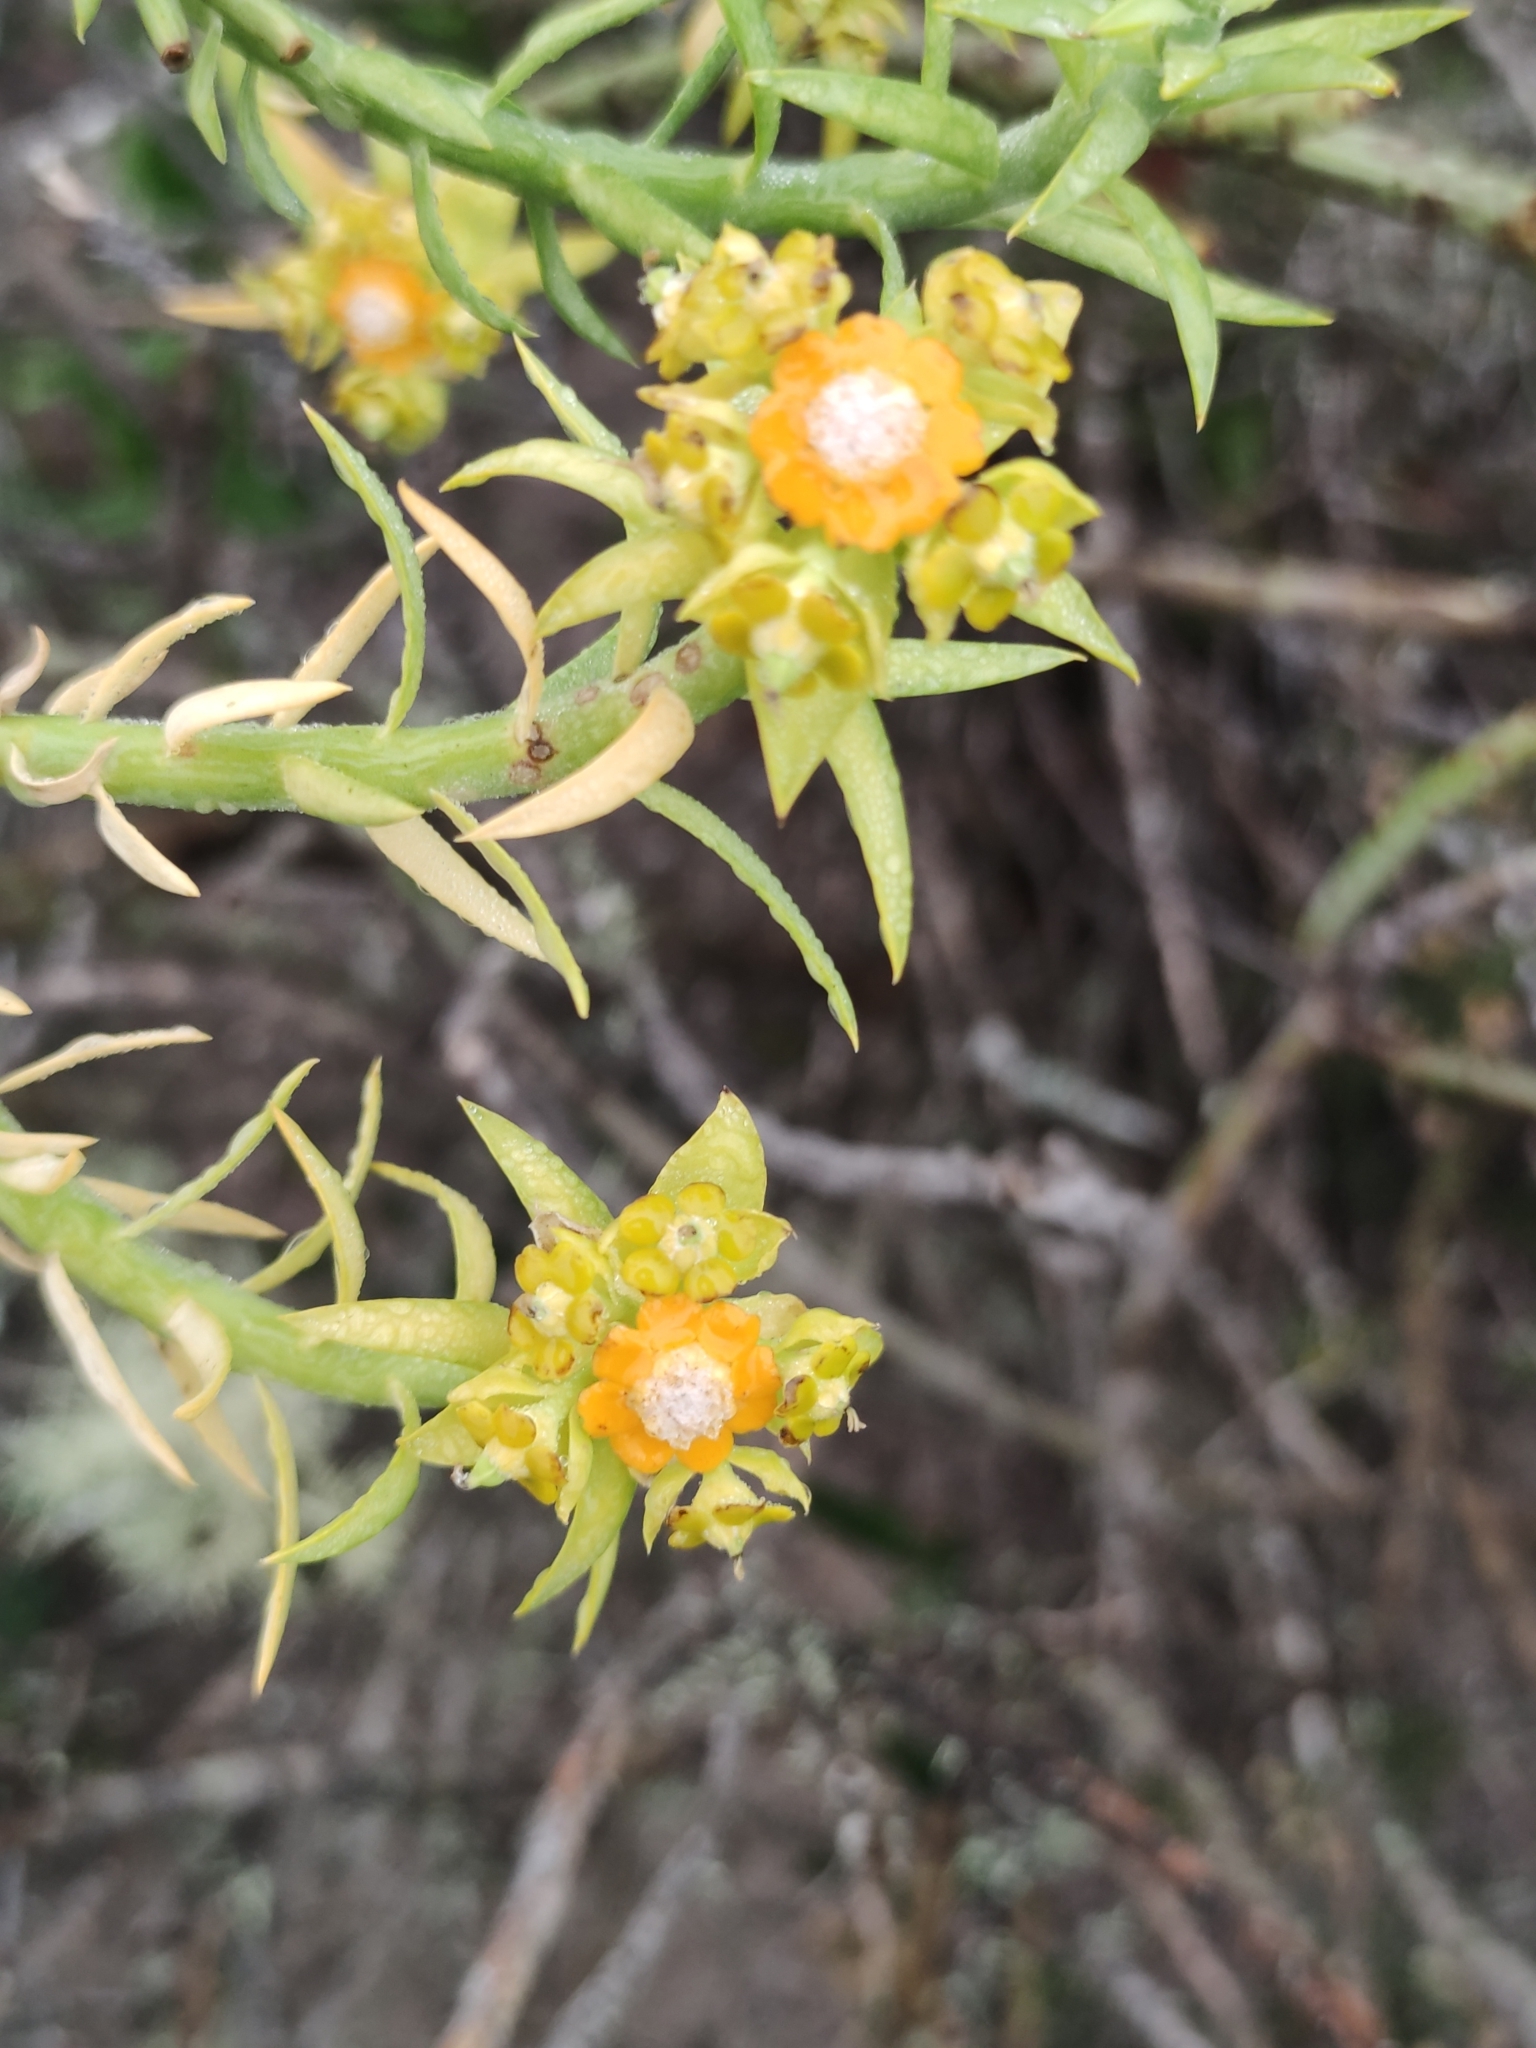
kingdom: Plantae
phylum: Tracheophyta
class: Magnoliopsida
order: Malpighiales
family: Euphorbiaceae
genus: Euphorbia
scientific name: Euphorbia mauritanica
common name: Jackal's-food
